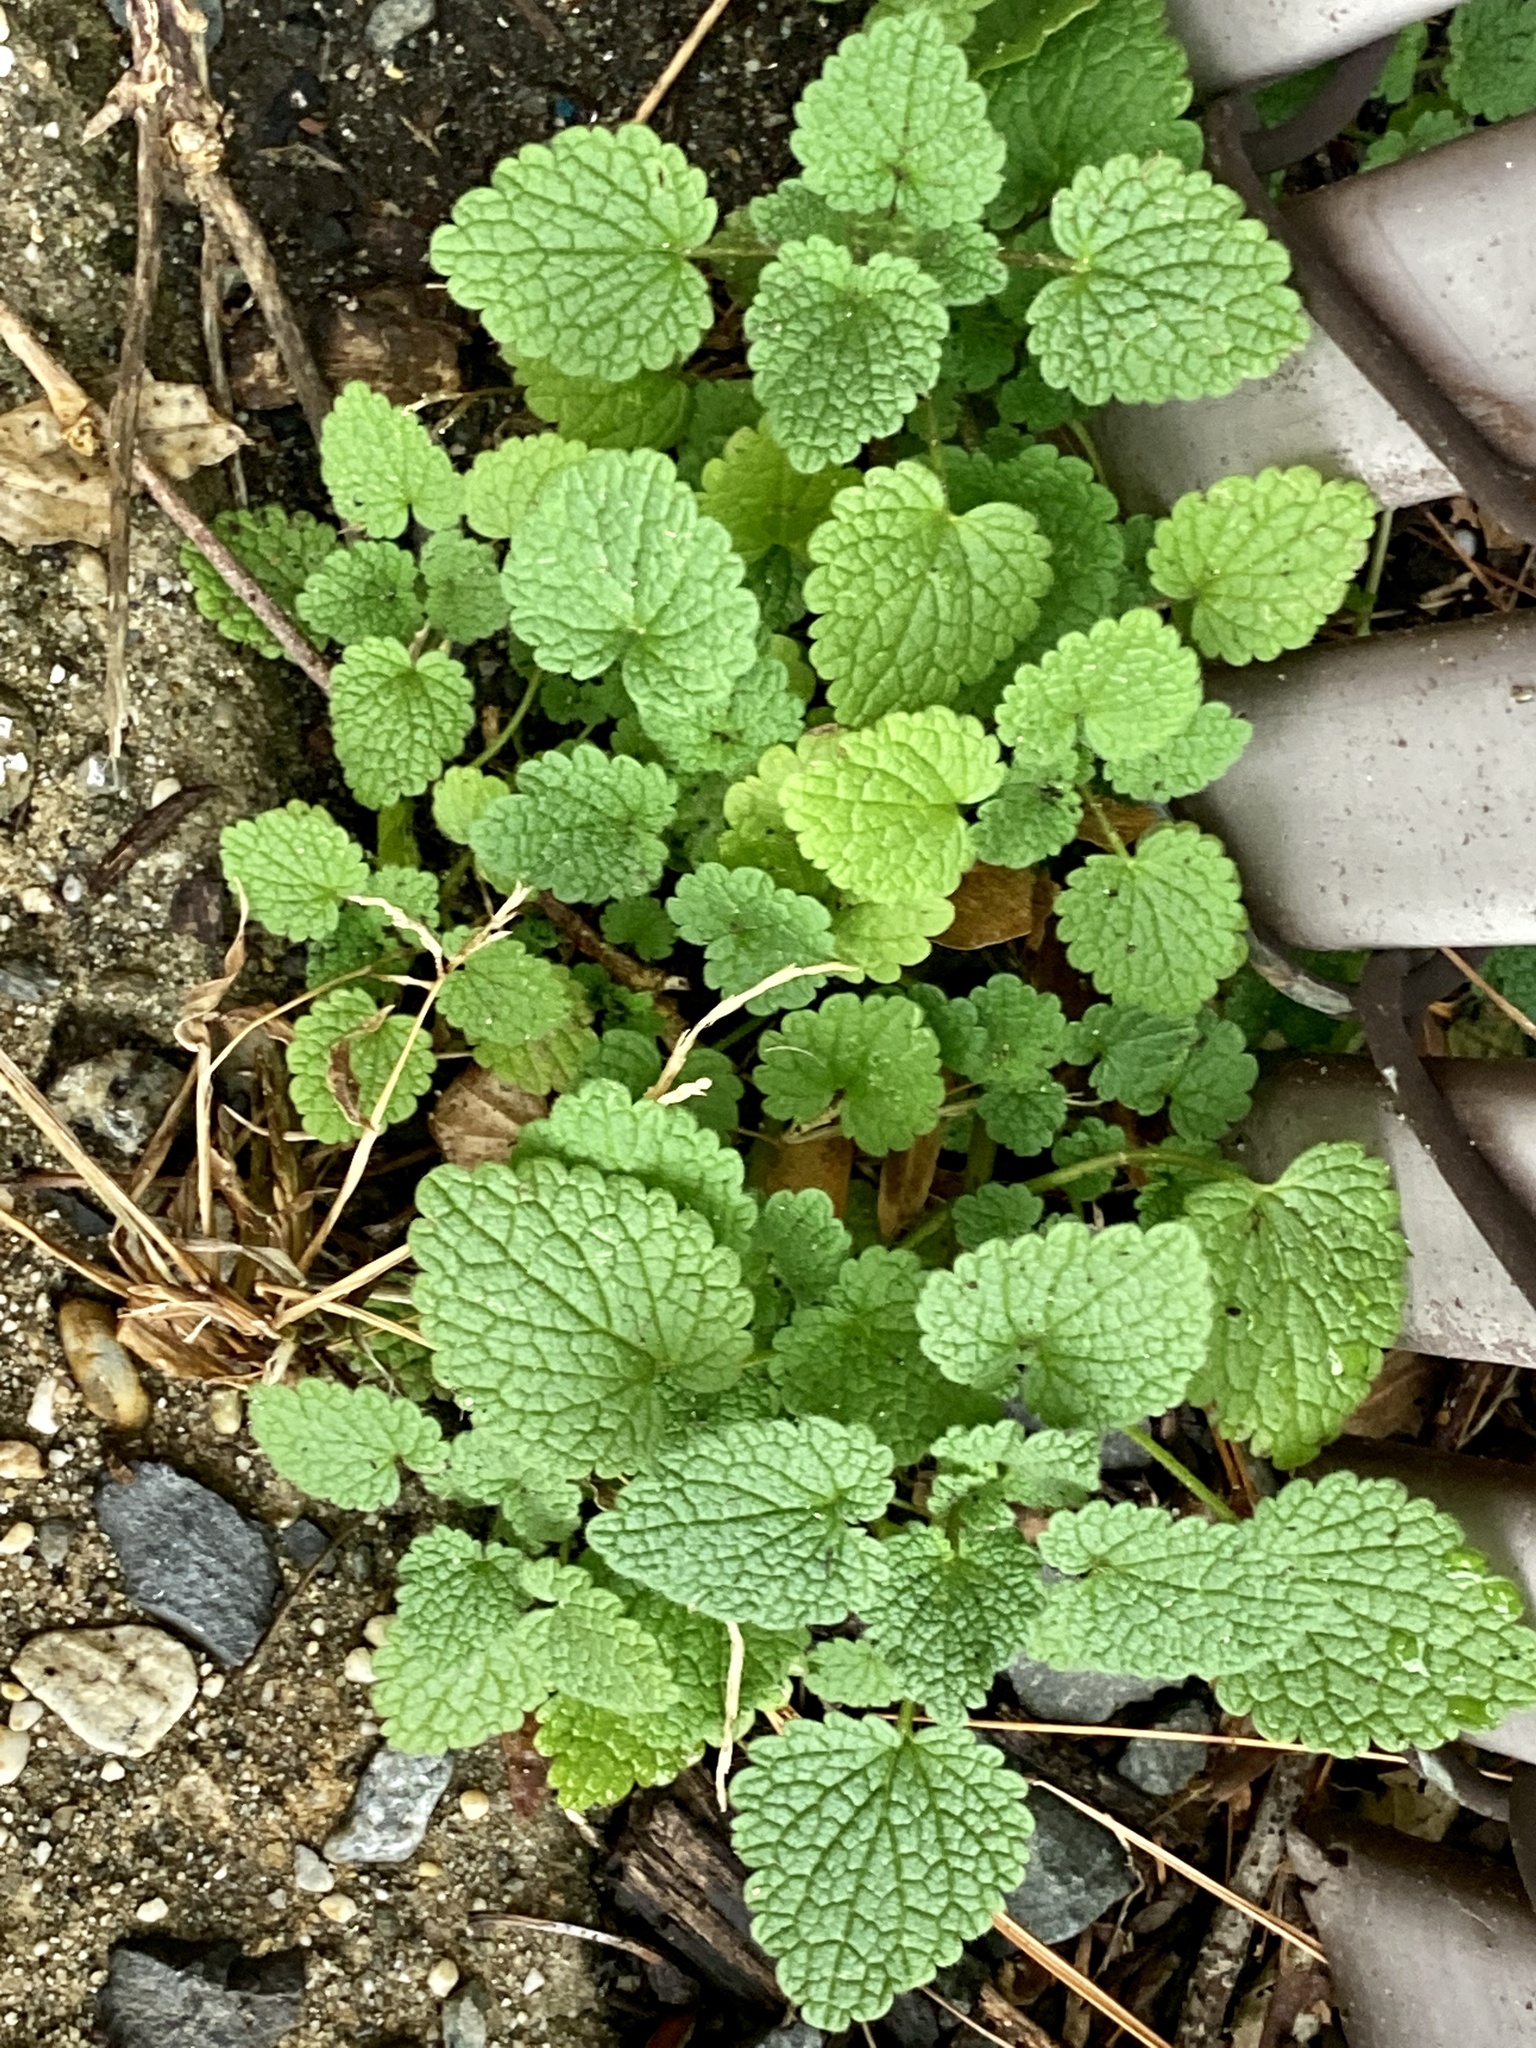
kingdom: Plantae
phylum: Tracheophyta
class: Magnoliopsida
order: Lamiales
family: Lamiaceae
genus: Lamium
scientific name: Lamium purpureum
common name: Red dead-nettle
